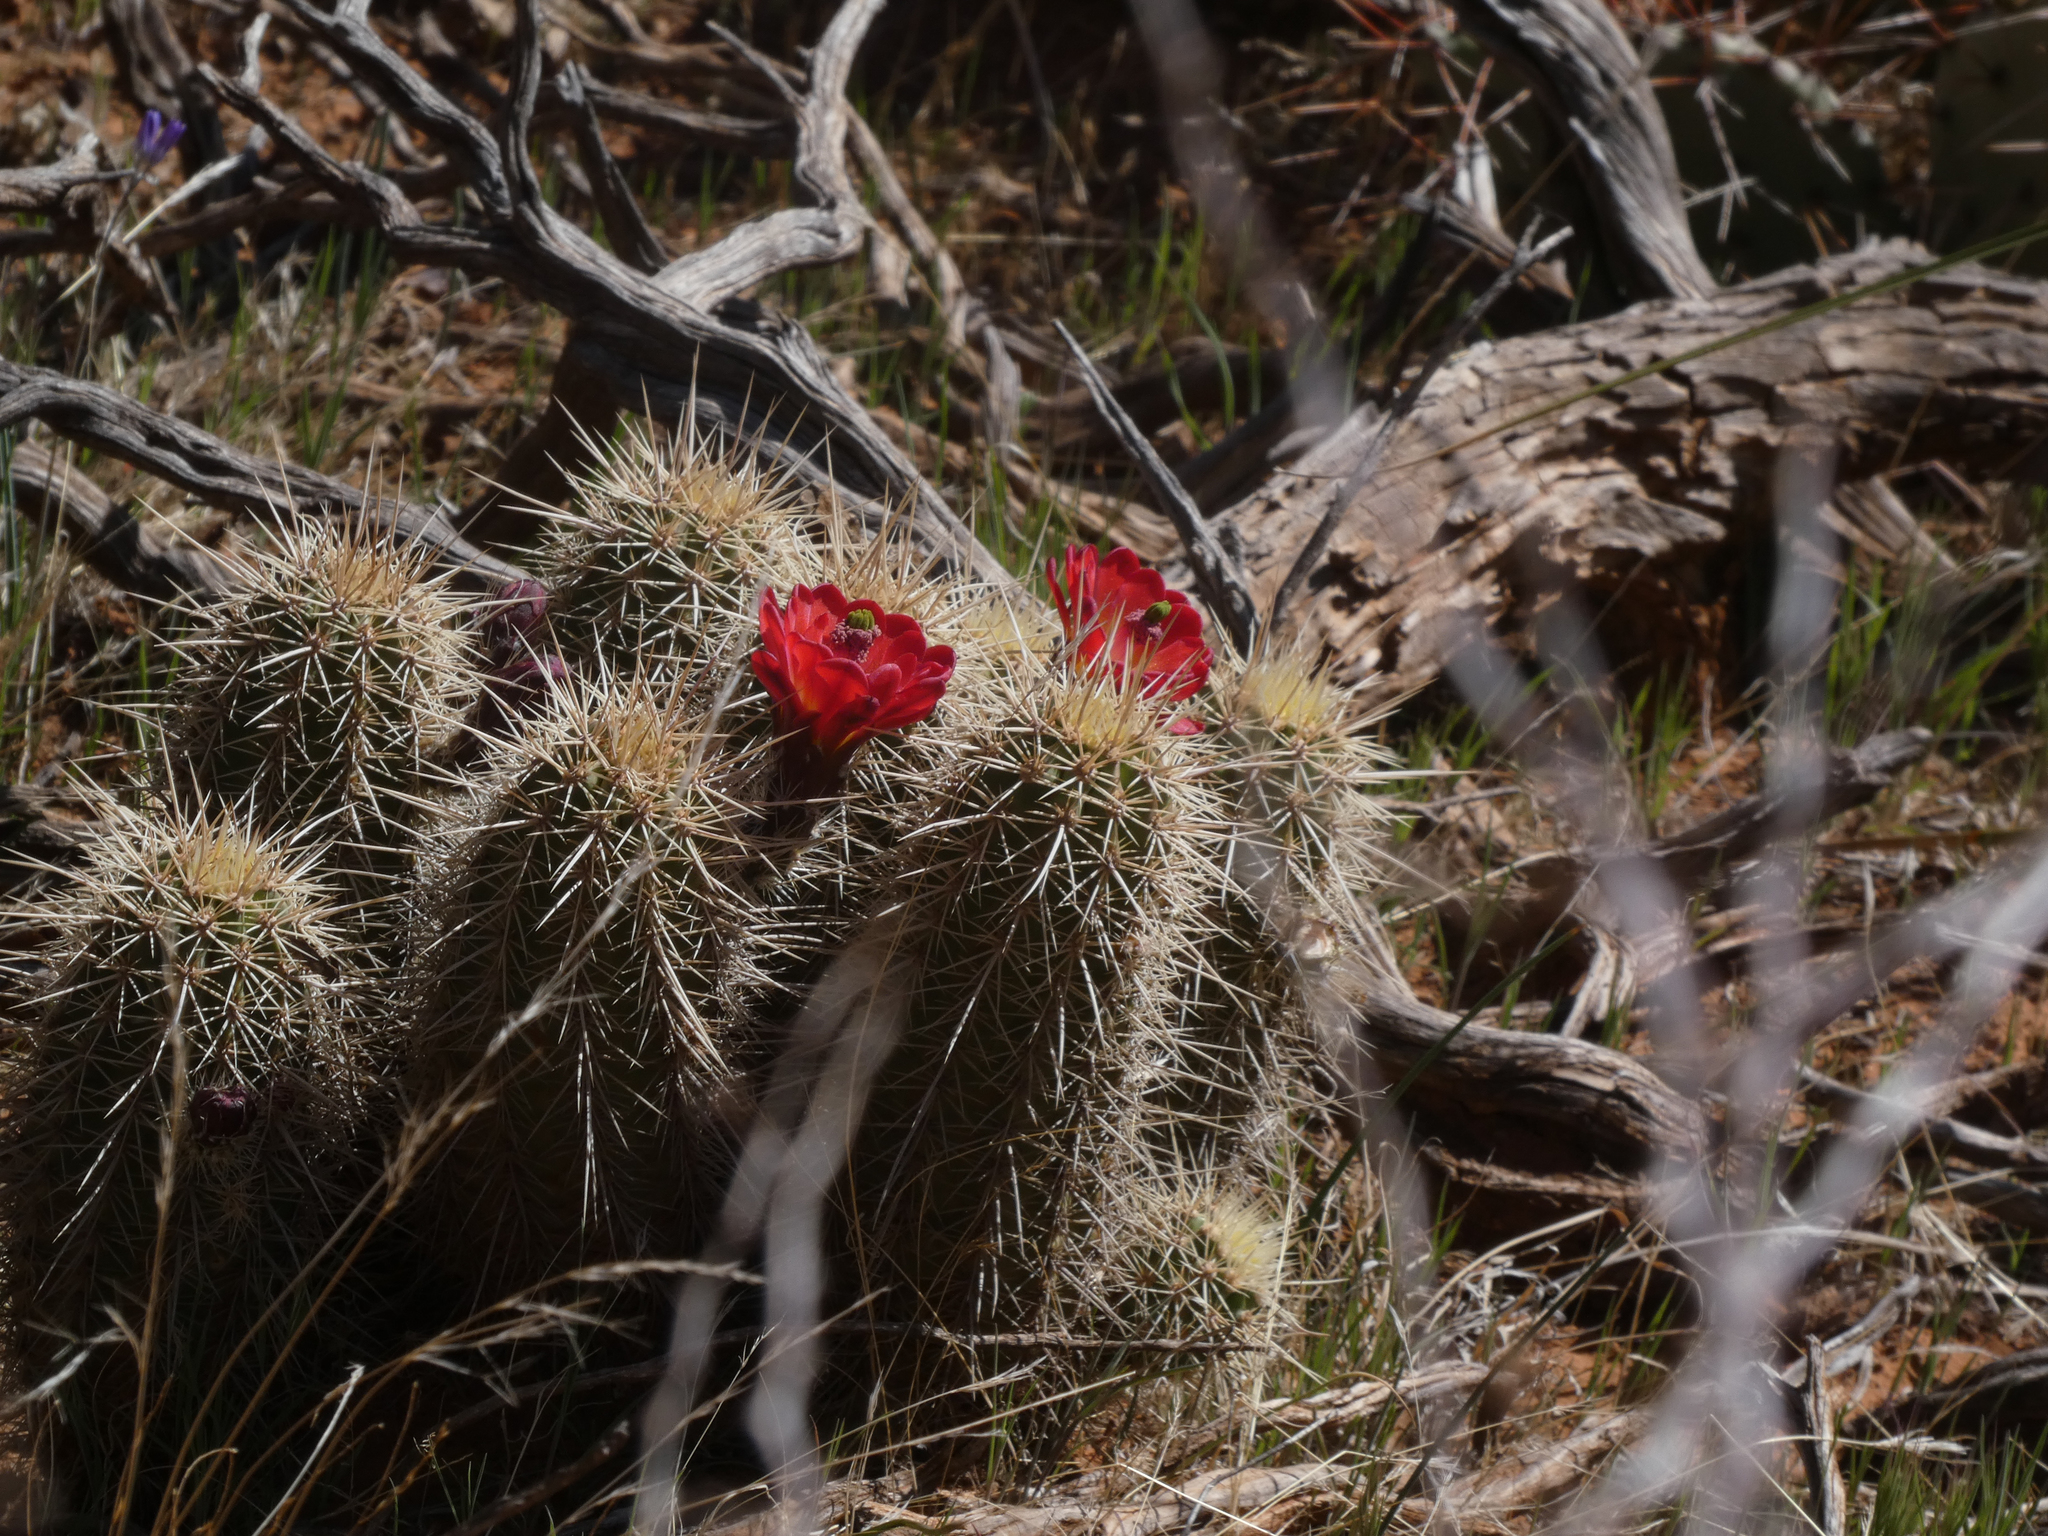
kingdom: Plantae
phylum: Tracheophyta
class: Magnoliopsida
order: Caryophyllales
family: Cactaceae
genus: Echinocereus
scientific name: Echinocereus bakeri
